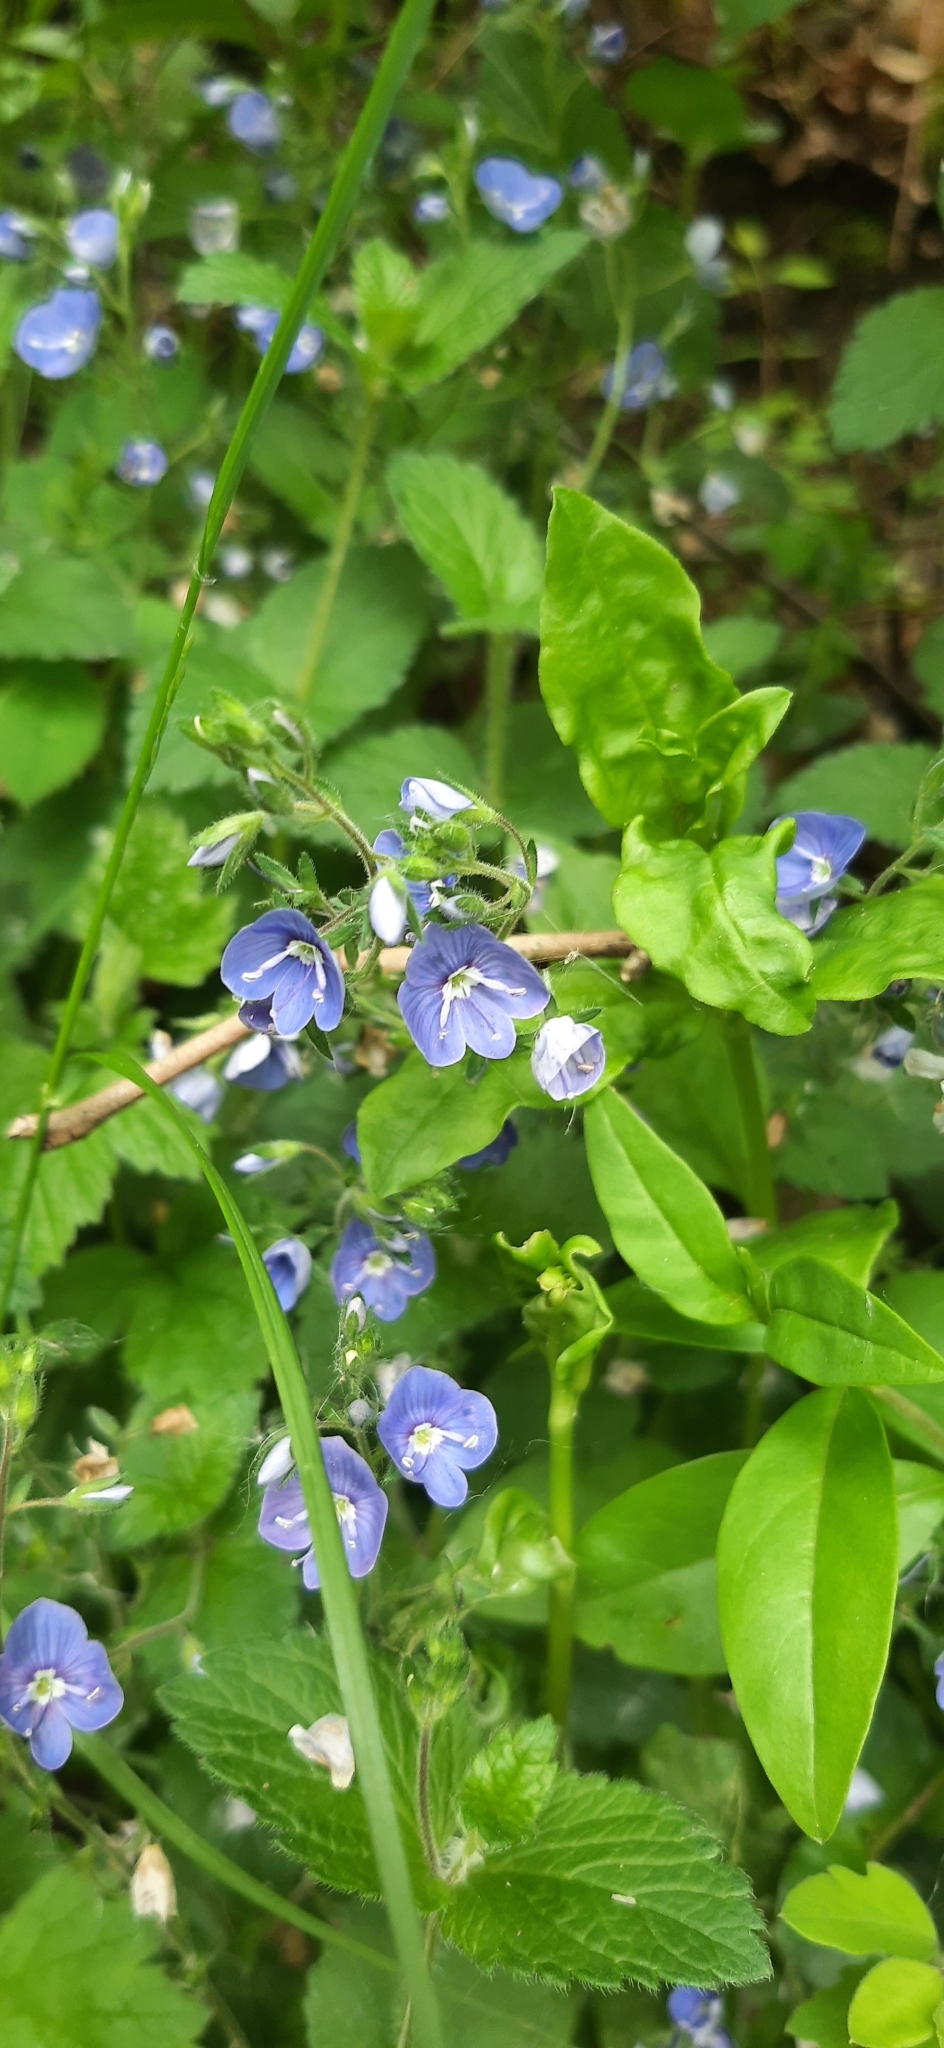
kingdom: Plantae
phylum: Tracheophyta
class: Magnoliopsida
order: Lamiales
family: Plantaginaceae
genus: Veronica
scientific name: Veronica chamaedrys
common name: Germander speedwell
